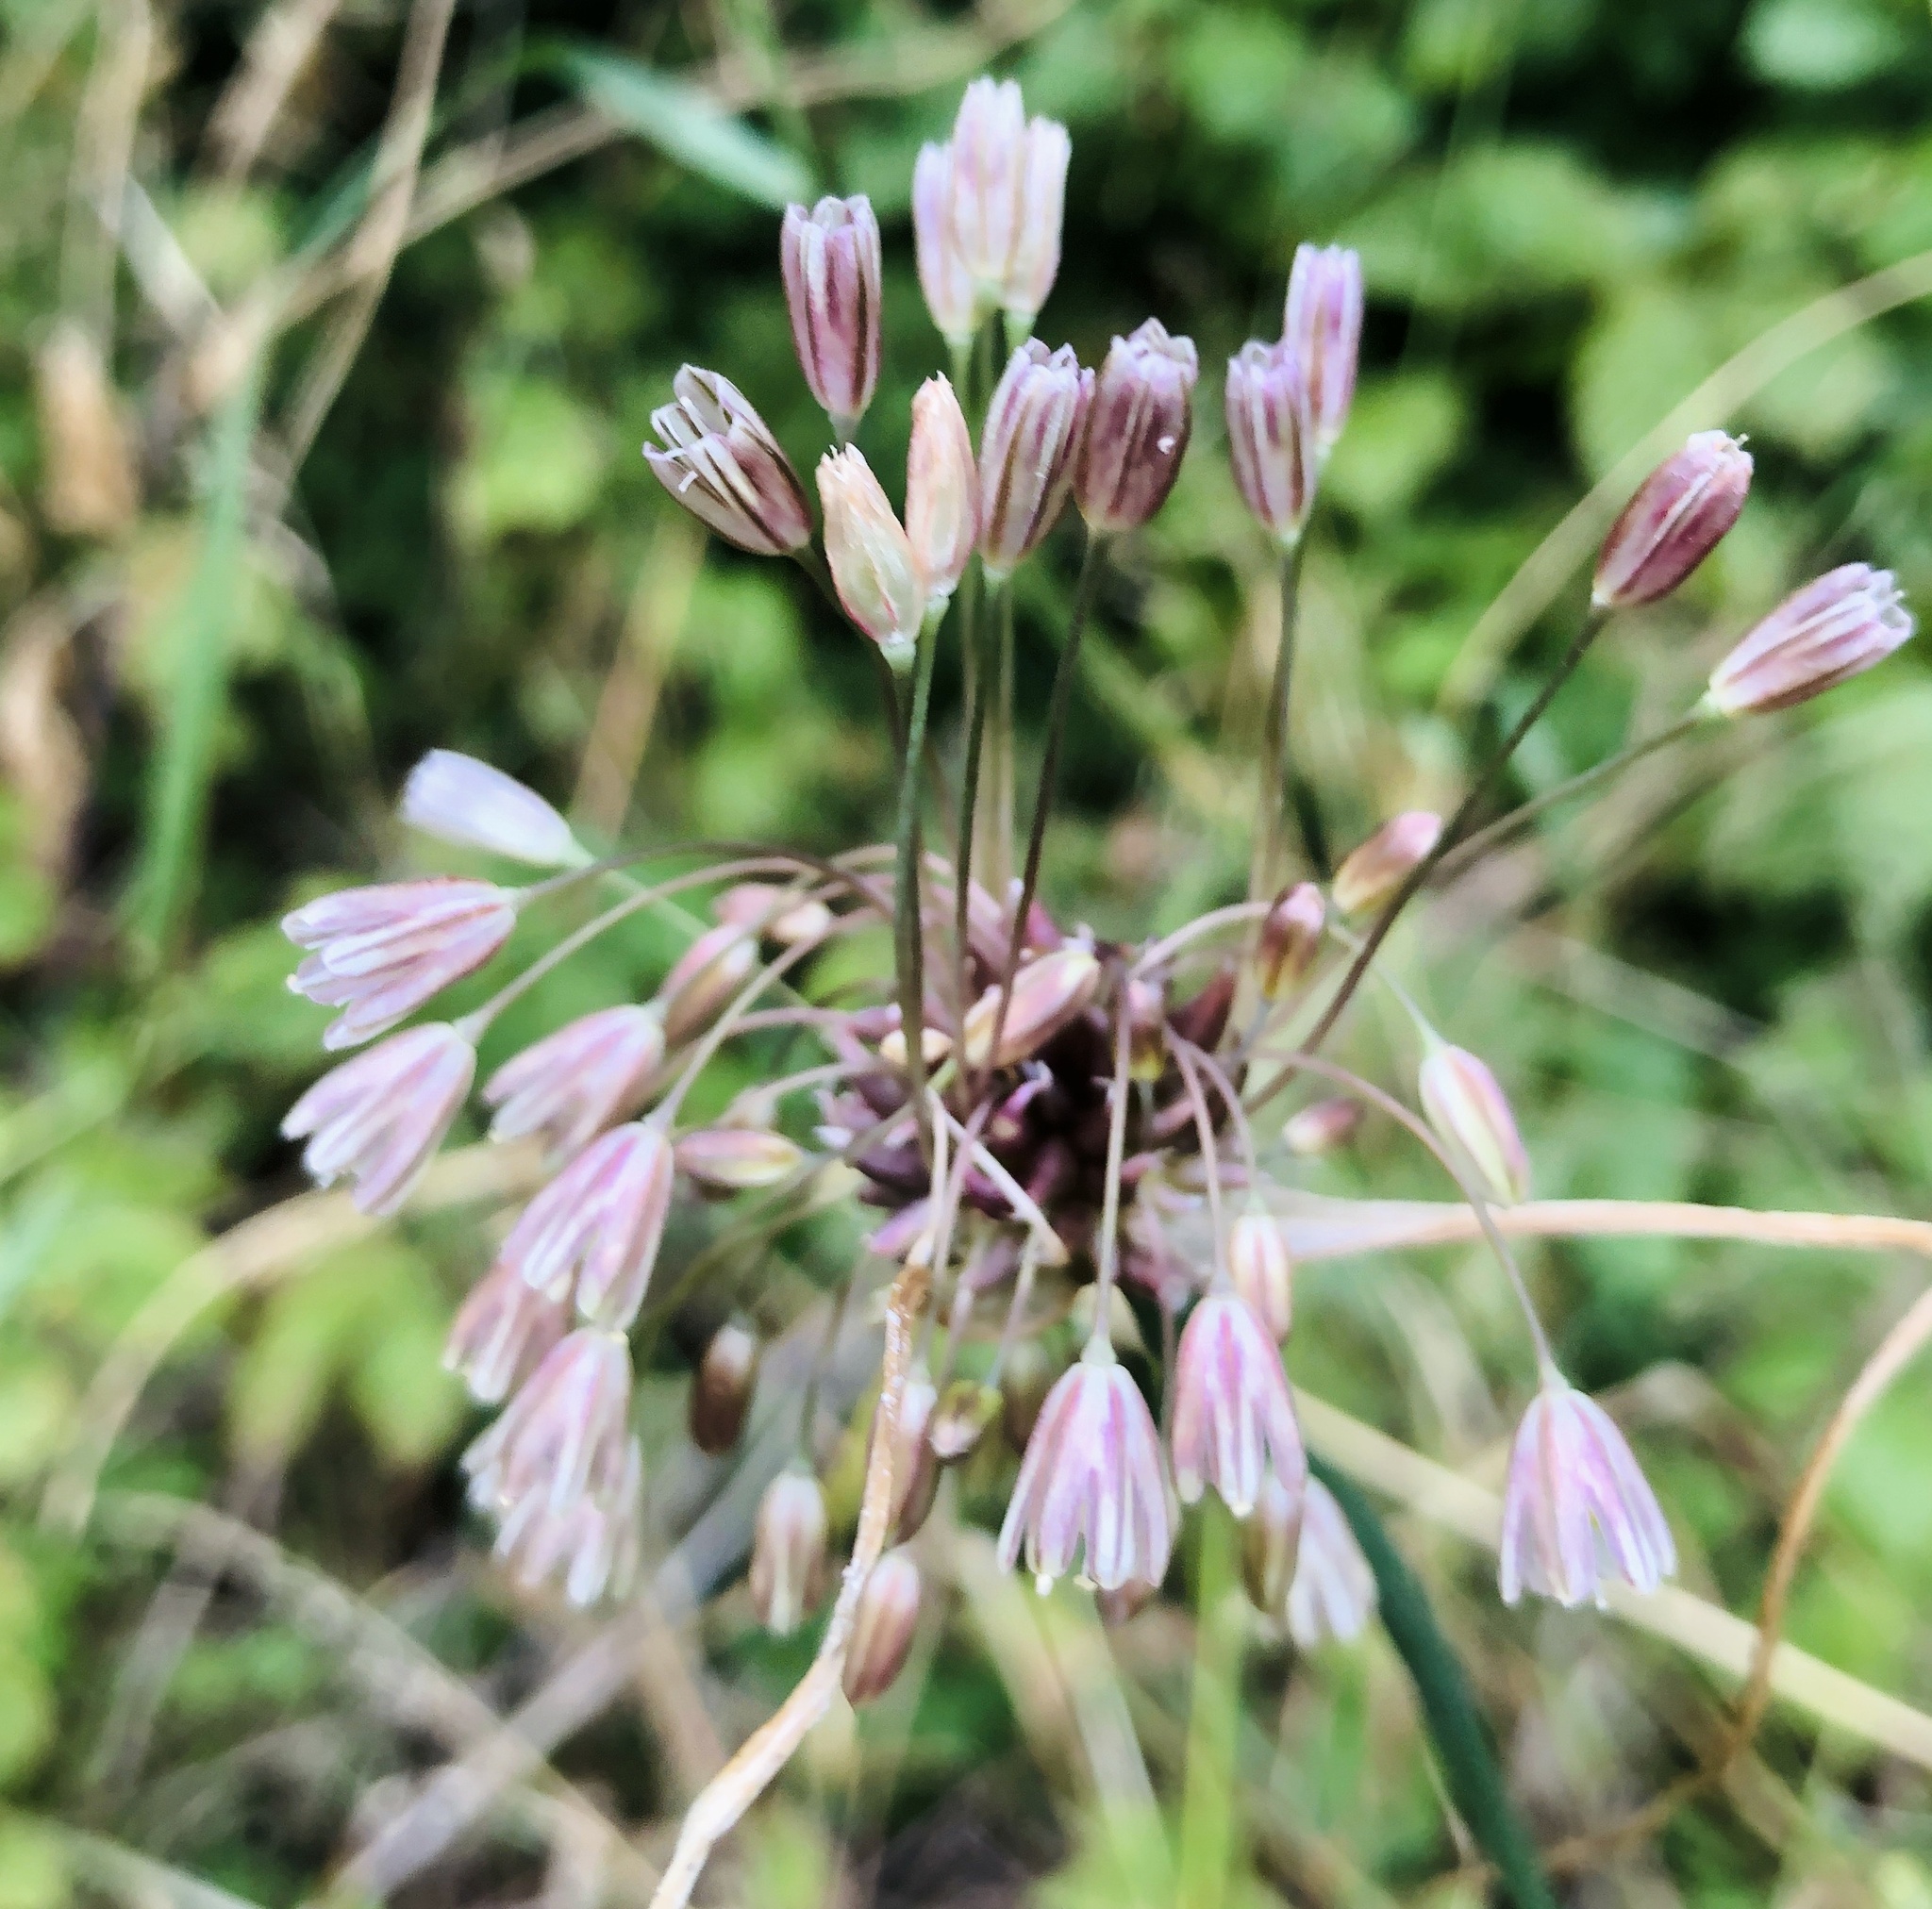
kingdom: Plantae
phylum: Tracheophyta
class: Liliopsida
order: Asparagales
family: Amaryllidaceae
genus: Allium
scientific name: Allium oleraceum
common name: Field garlic
